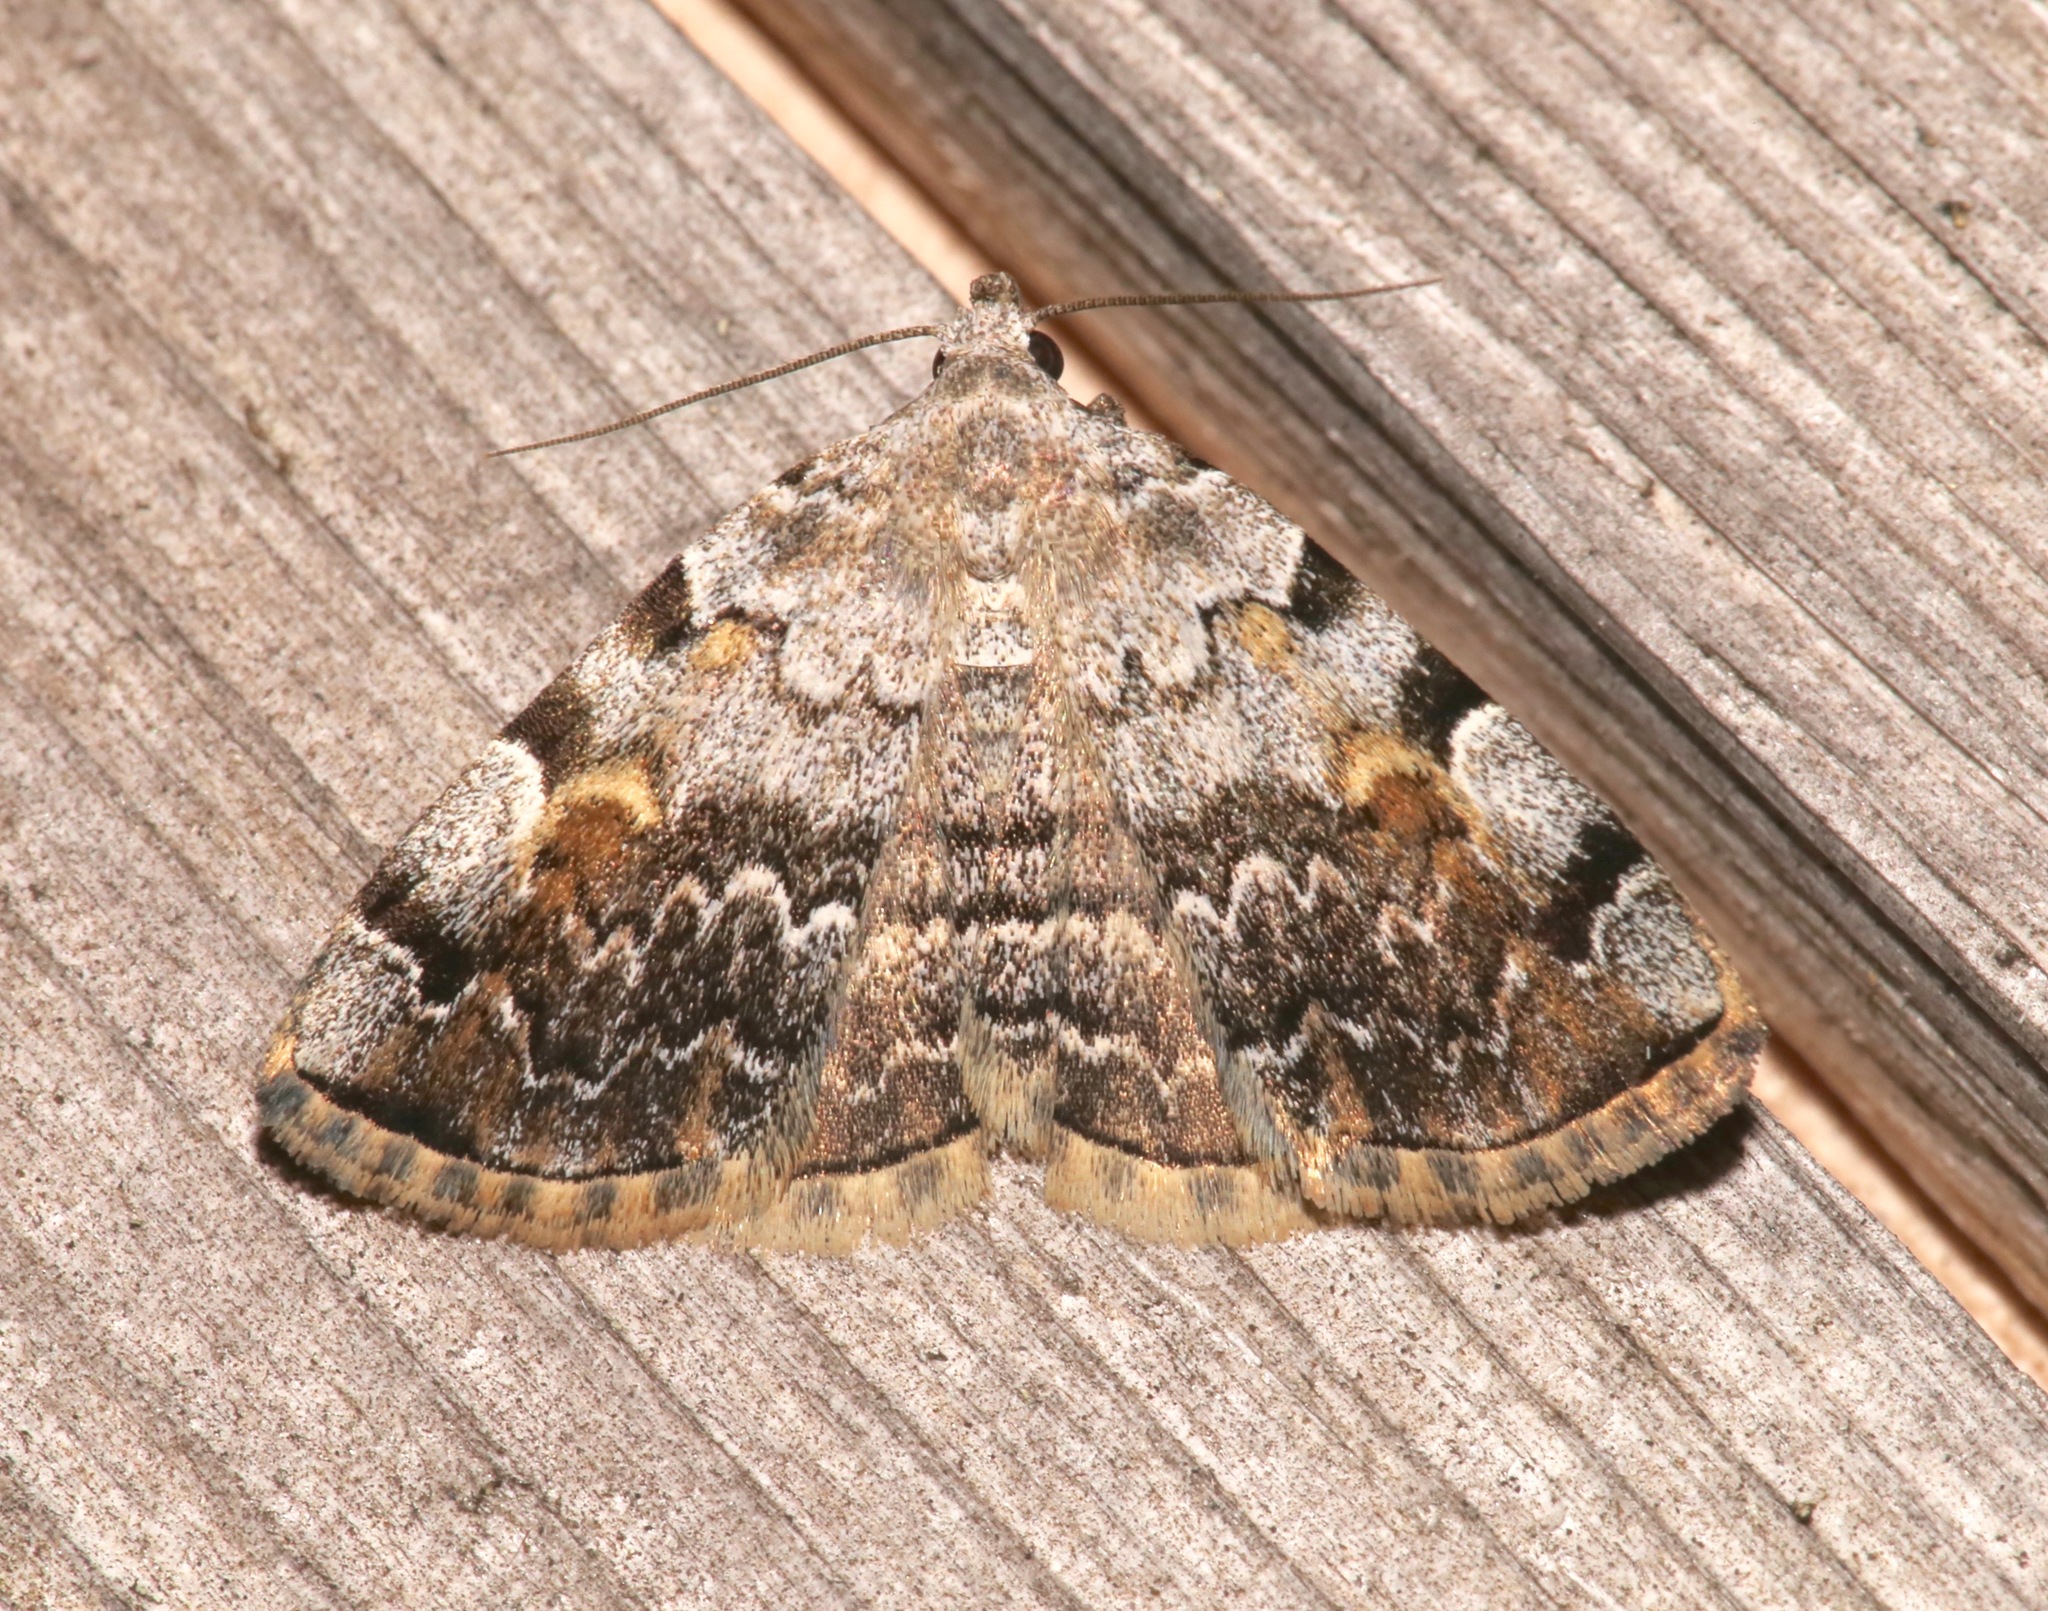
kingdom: Animalia
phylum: Arthropoda
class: Insecta
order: Lepidoptera
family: Erebidae
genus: Idia
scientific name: Idia americalis
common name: American idia moth
